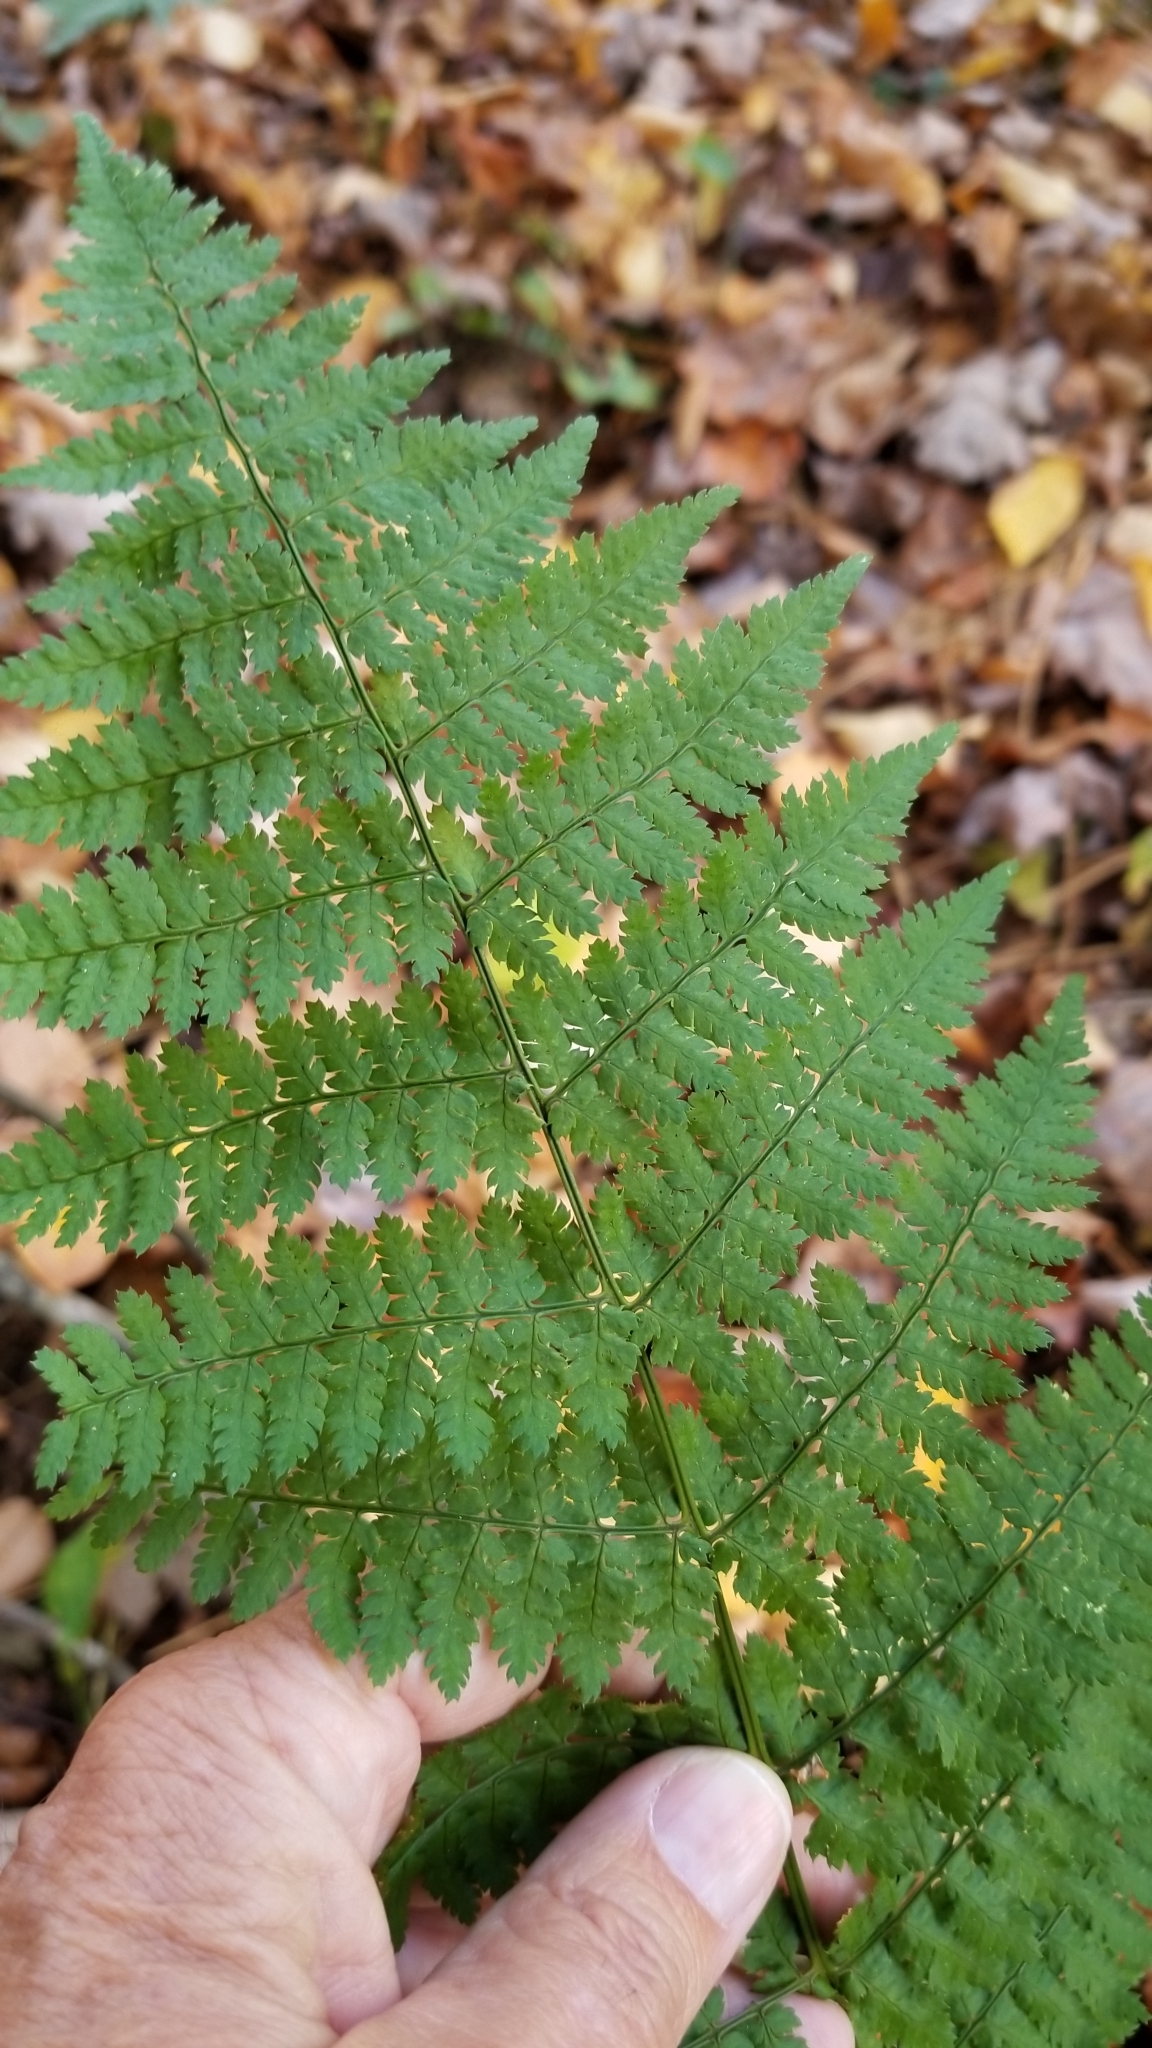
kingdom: Plantae
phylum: Tracheophyta
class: Polypodiopsida
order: Polypodiales
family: Dryopteridaceae
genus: Dryopteris
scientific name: Dryopteris intermedia
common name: Evergreen wood fern
